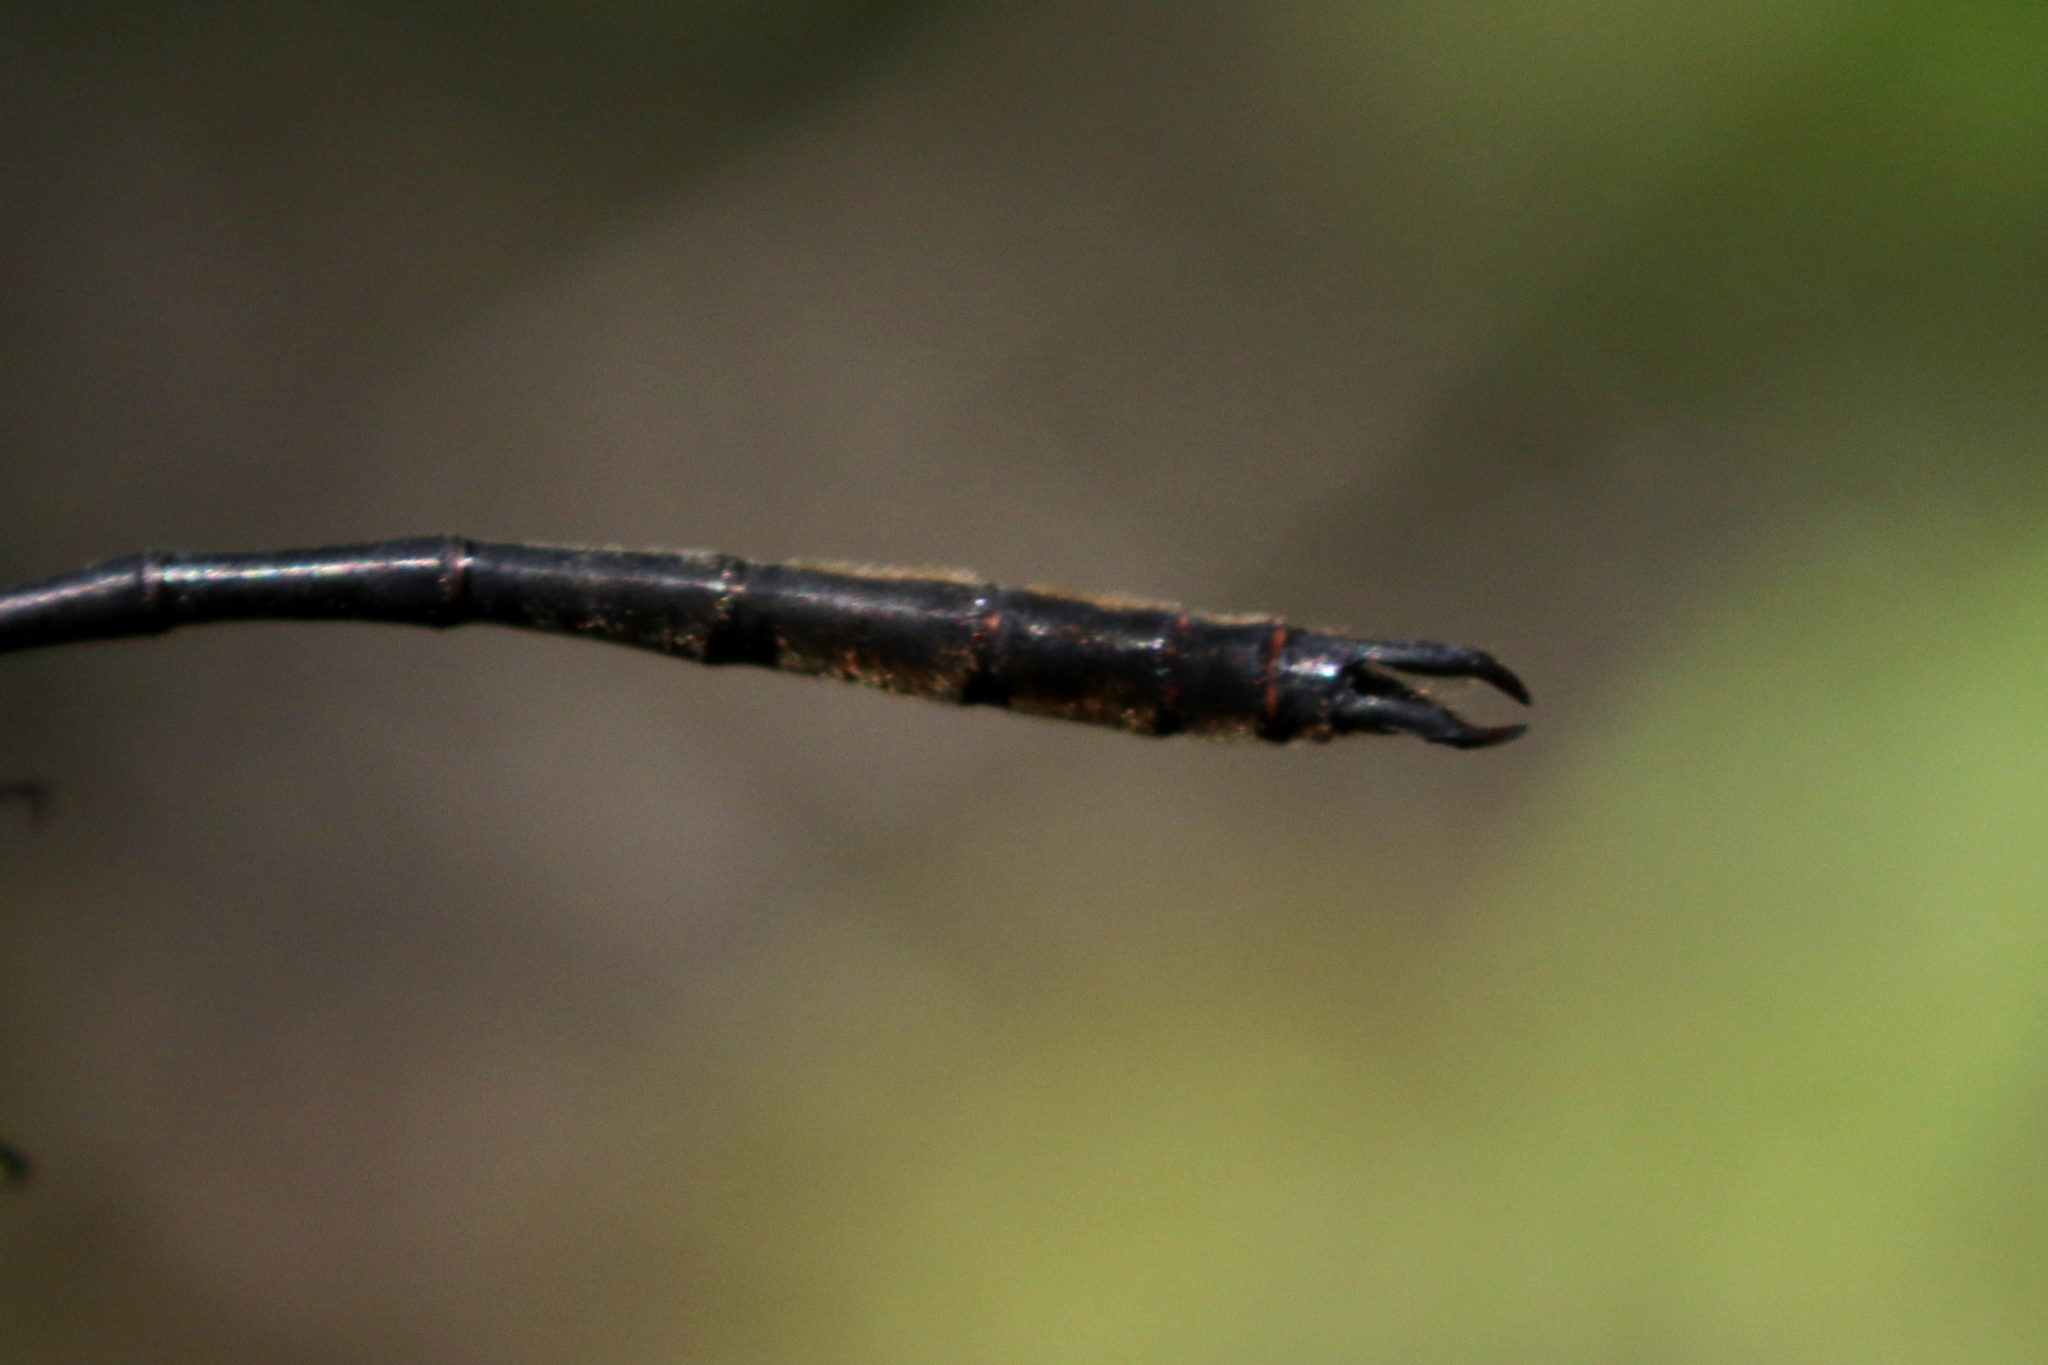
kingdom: Animalia
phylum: Arthropoda
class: Insecta
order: Odonata
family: Corduliidae
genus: Somatochlora
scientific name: Somatochlora franklini
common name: Delicate emerald
